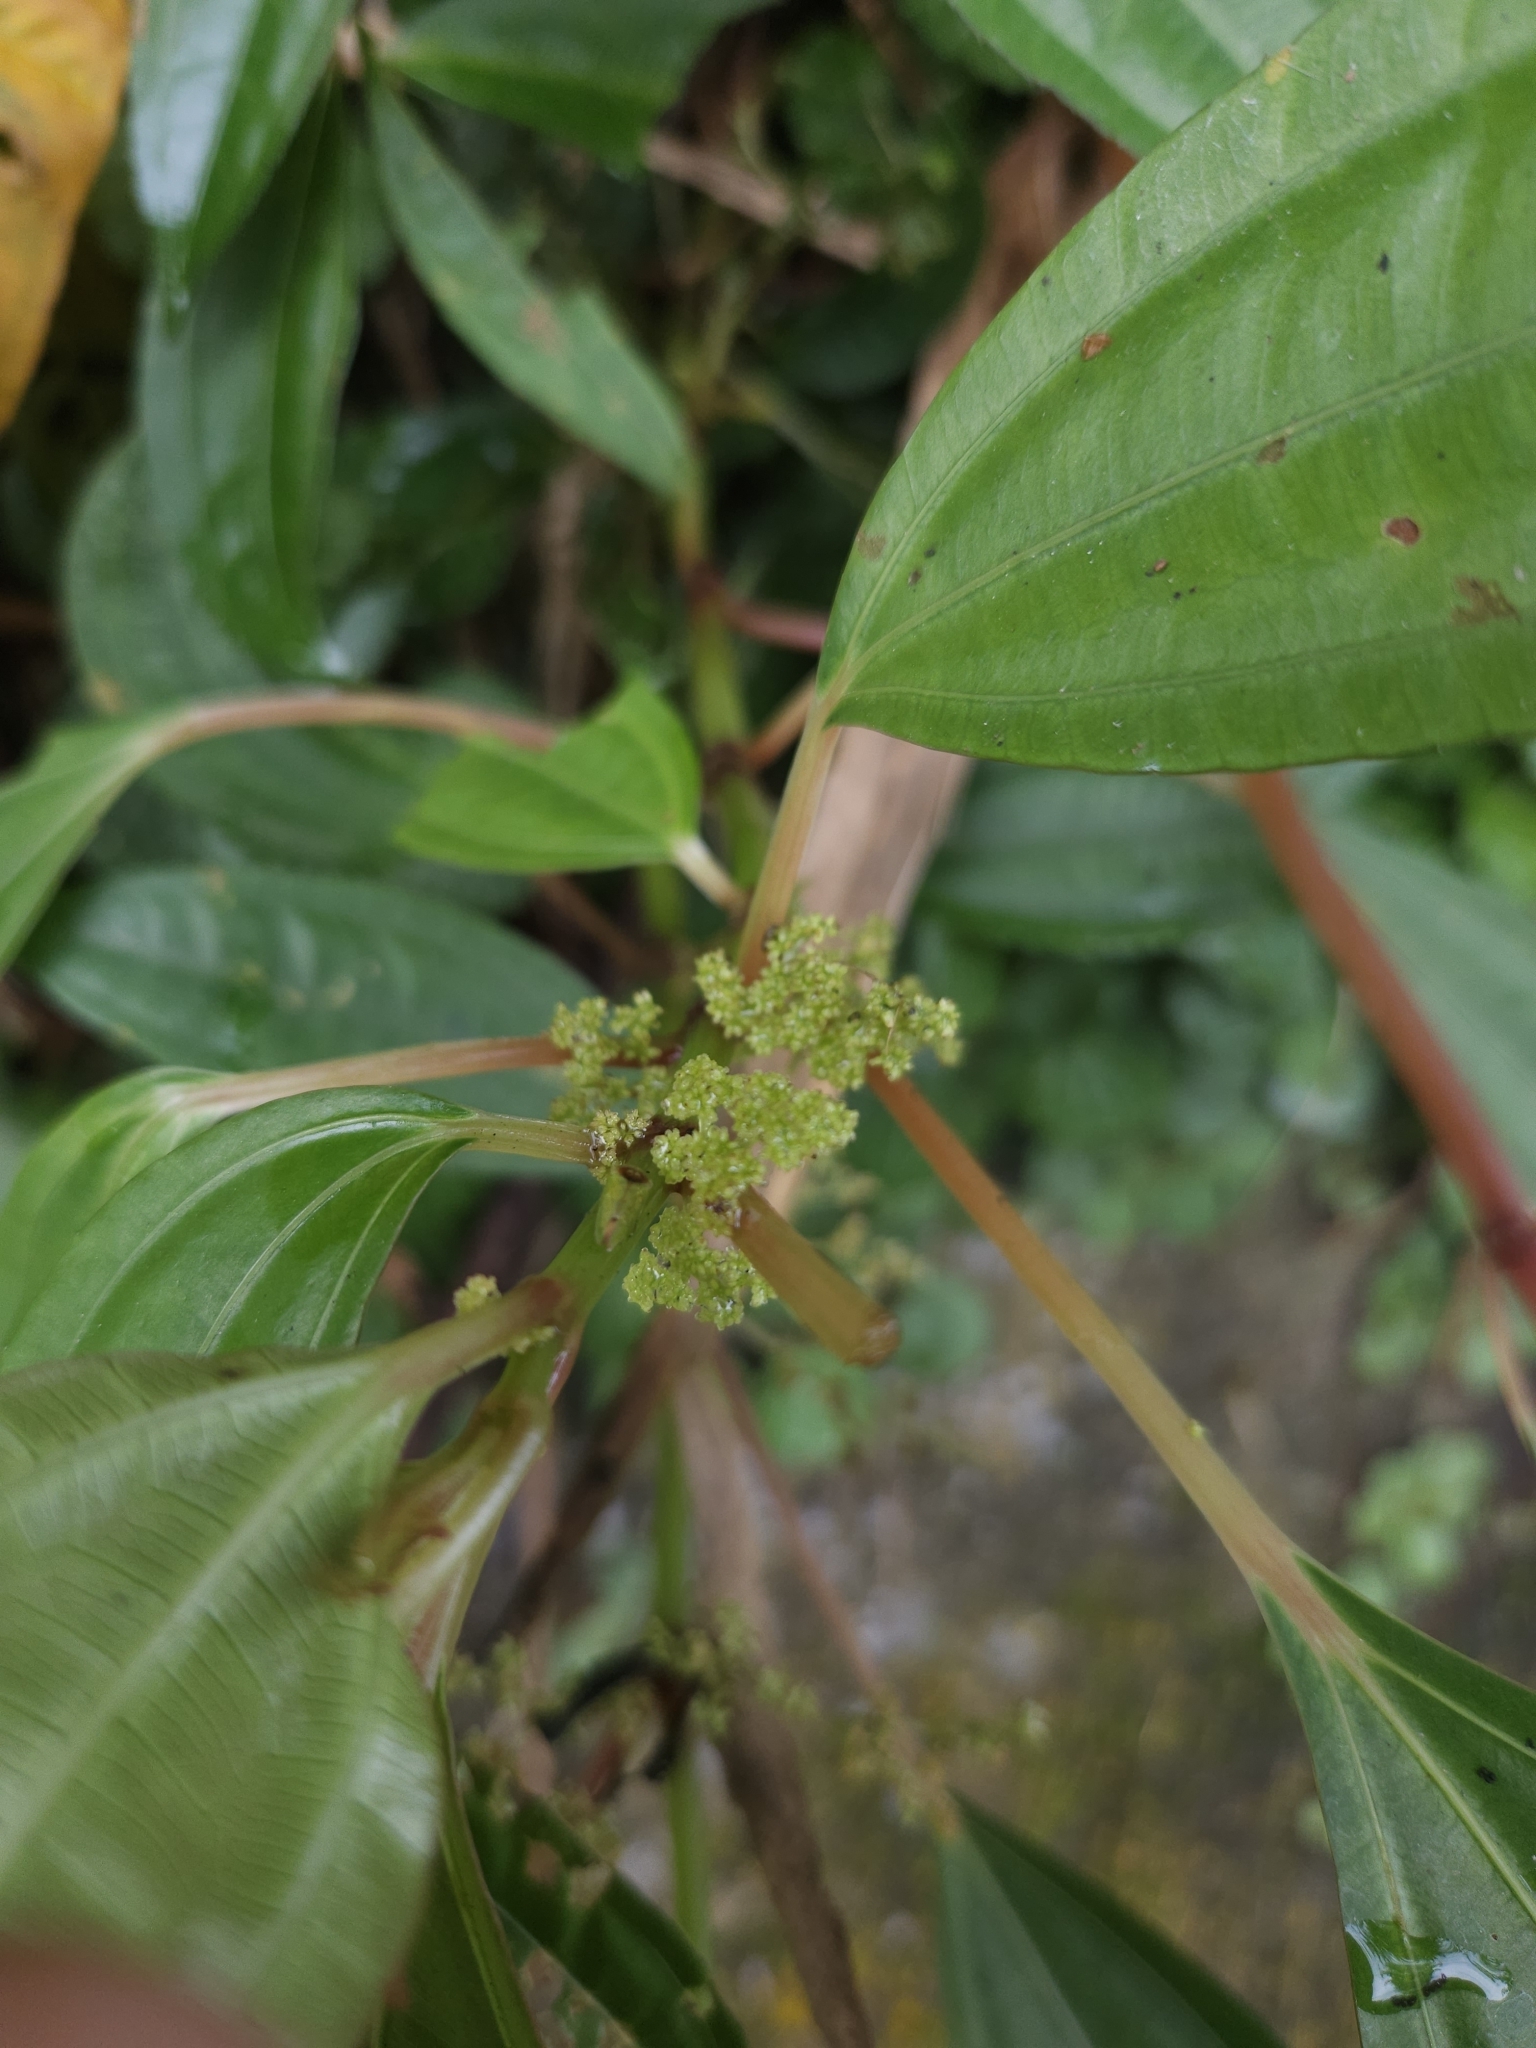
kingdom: Plantae
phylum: Tracheophyta
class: Magnoliopsida
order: Rosales
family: Urticaceae
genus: Pilea
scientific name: Pilea rotundinucula
